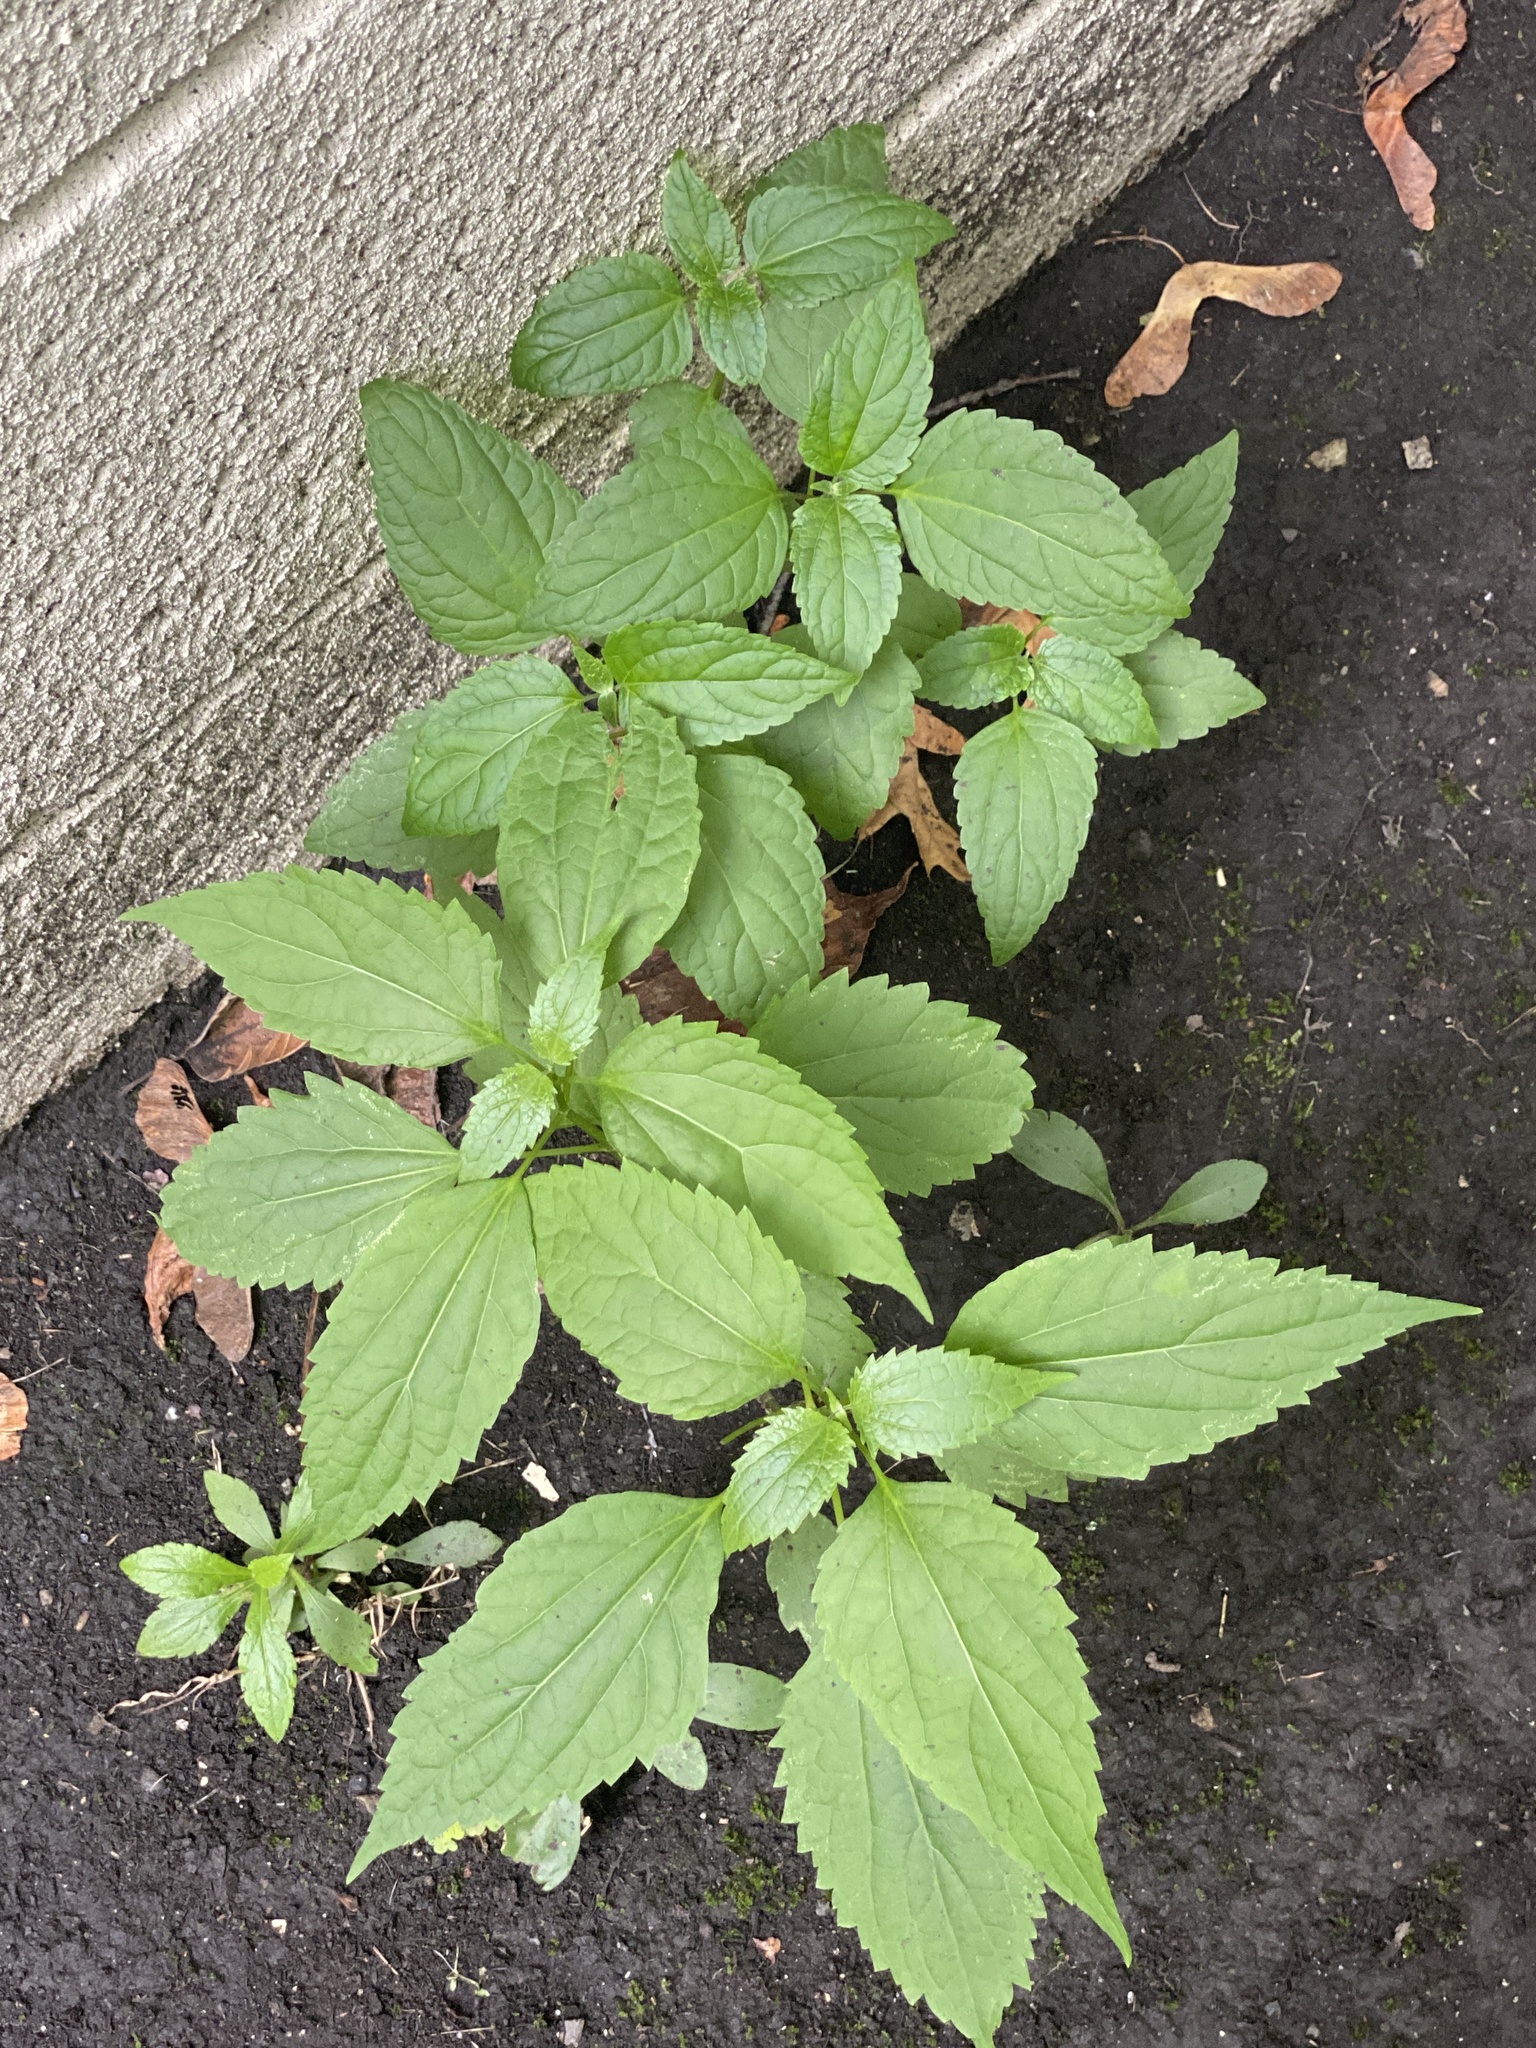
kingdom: Plantae
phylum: Tracheophyta
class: Magnoliopsida
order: Asterales
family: Asteraceae
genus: Ageratina
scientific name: Ageratina altissima
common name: White snakeroot
